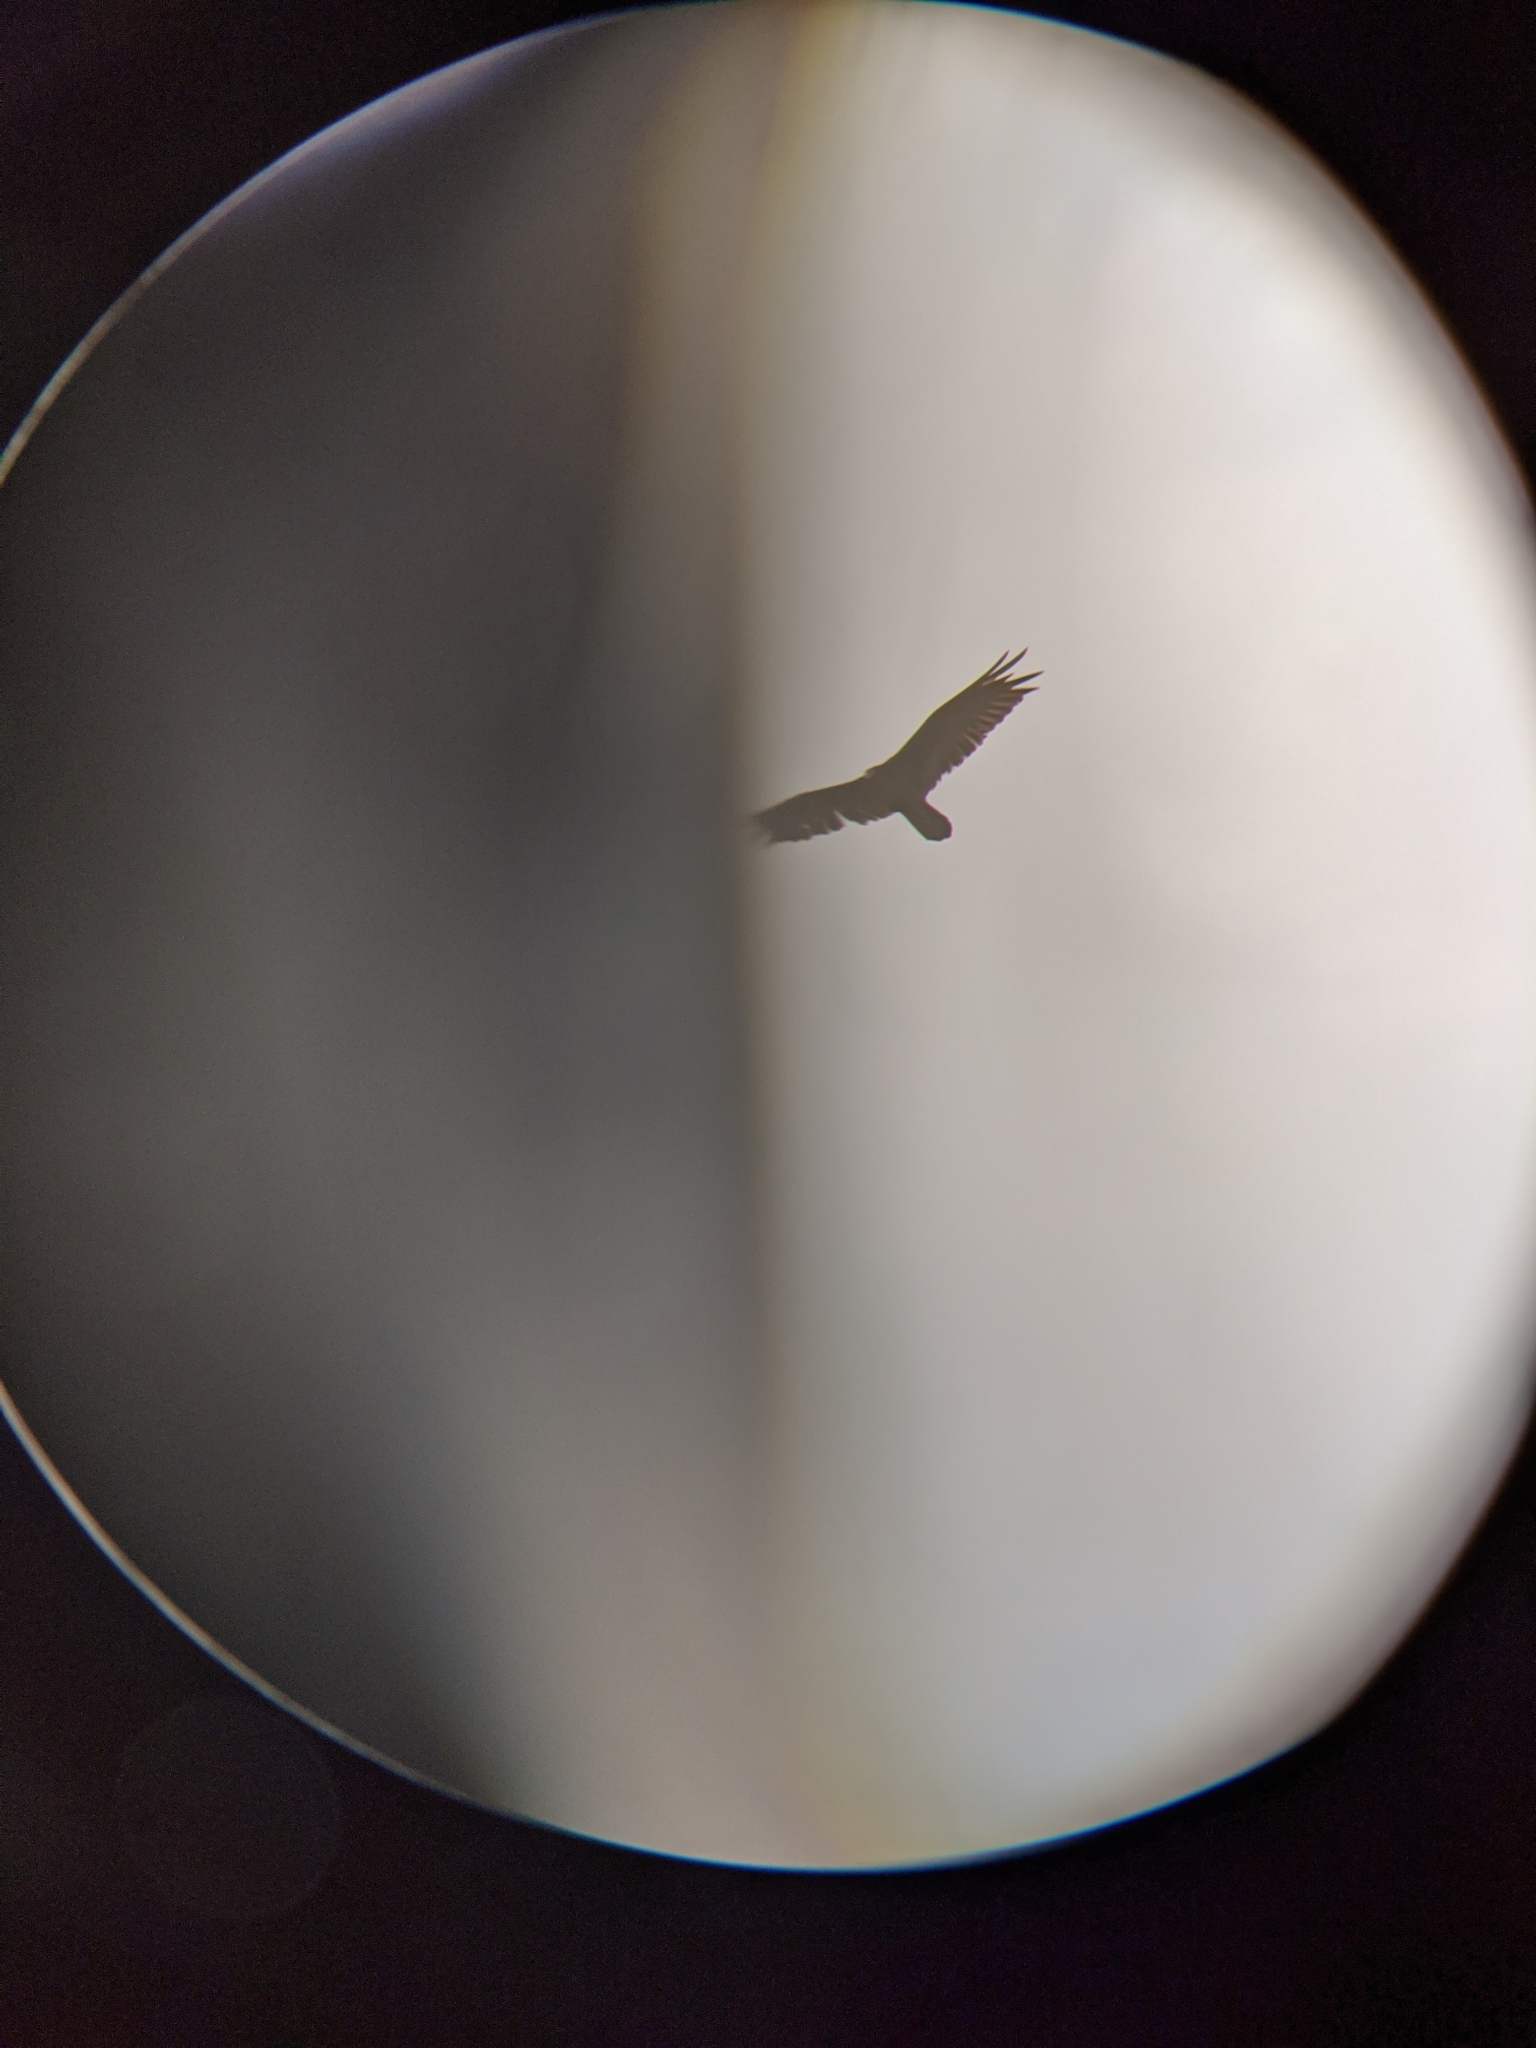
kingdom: Animalia
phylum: Chordata
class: Aves
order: Accipitriformes
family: Cathartidae
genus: Cathartes
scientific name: Cathartes aura
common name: Turkey vulture
